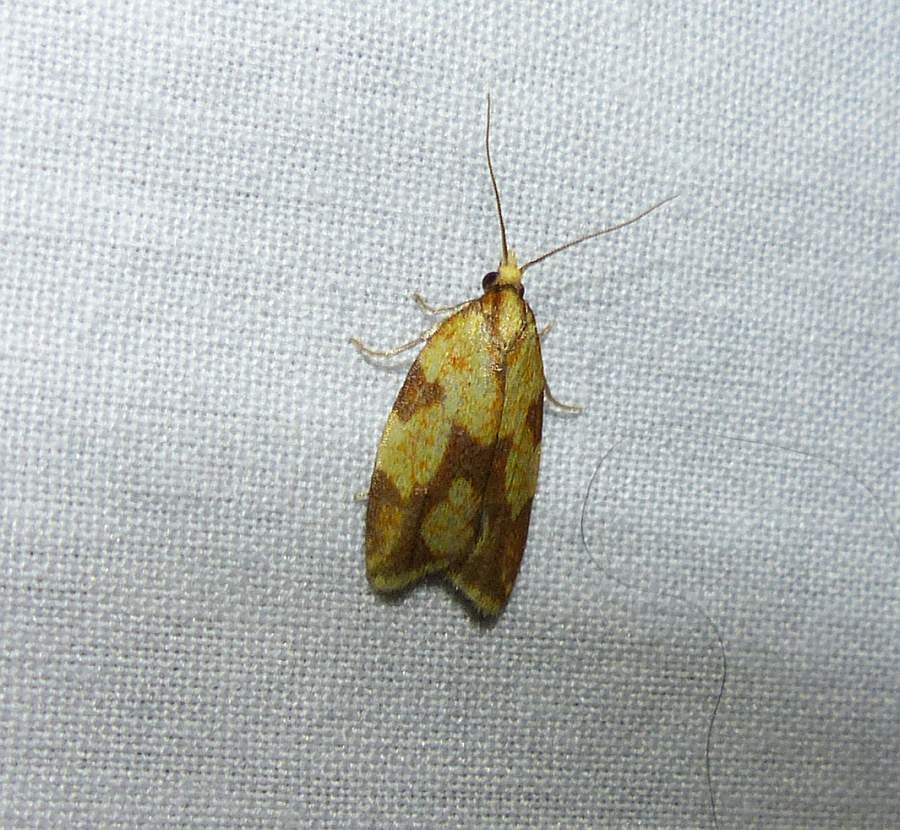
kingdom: Animalia
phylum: Arthropoda
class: Insecta
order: Lepidoptera
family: Tortricidae
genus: Sparganothis
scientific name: Sparganothis sulfureana
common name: Sparganothis fruitworm moth
